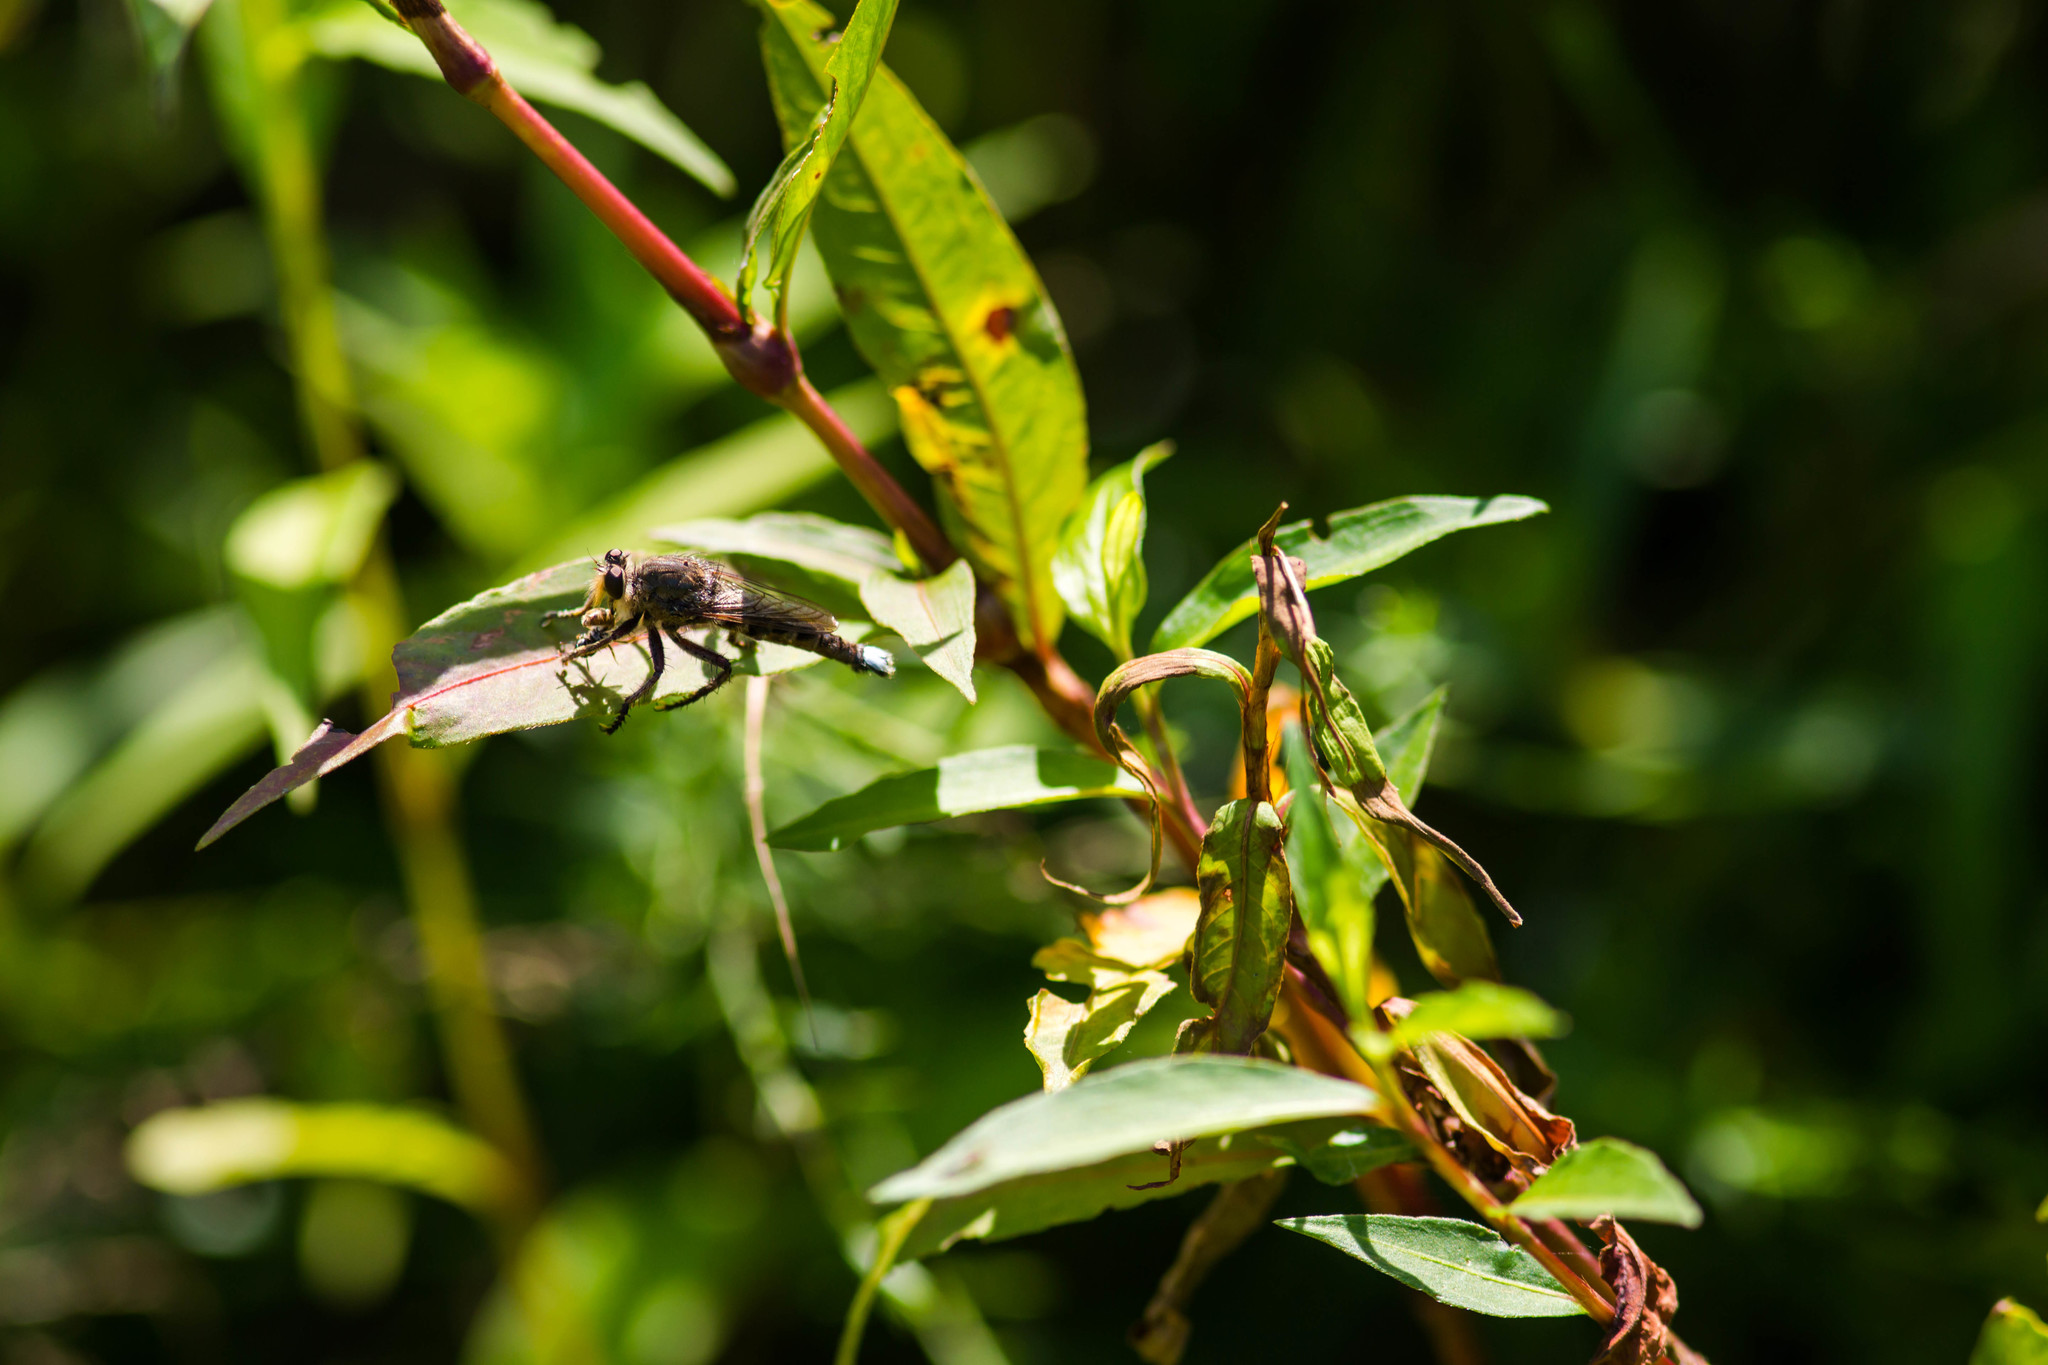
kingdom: Animalia
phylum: Arthropoda
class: Insecta
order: Diptera
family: Asilidae
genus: Promachus
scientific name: Promachus bastardii
